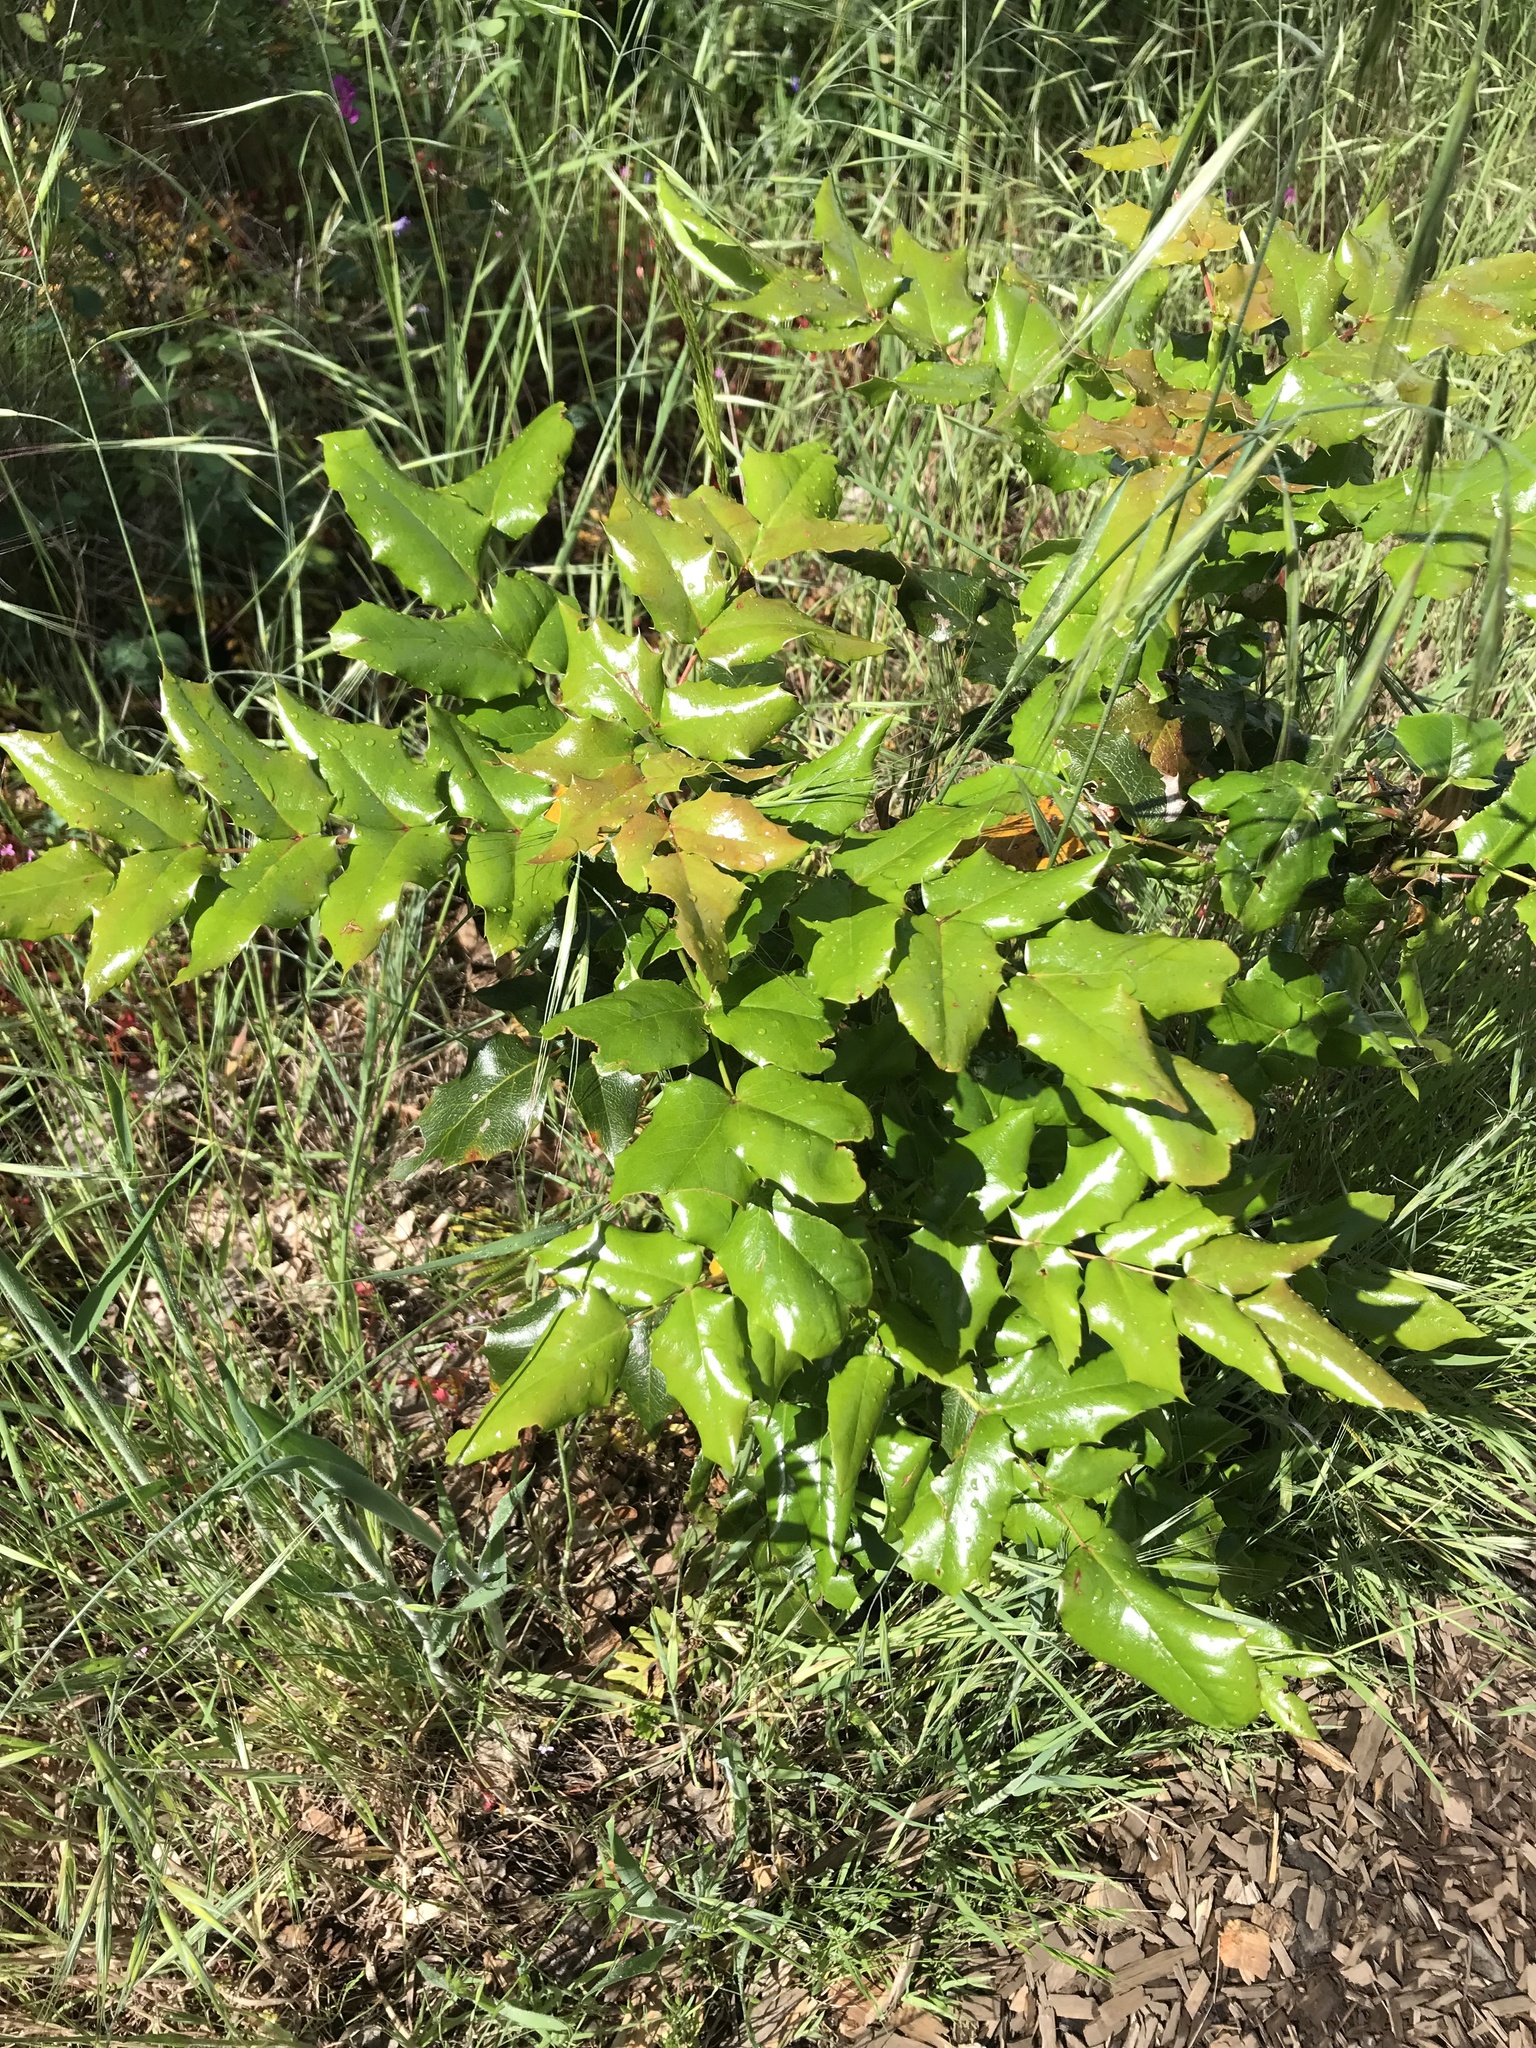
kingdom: Plantae
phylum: Tracheophyta
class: Magnoliopsida
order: Ranunculales
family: Berberidaceae
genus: Mahonia
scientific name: Mahonia aquifolium
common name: Oregon-grape
